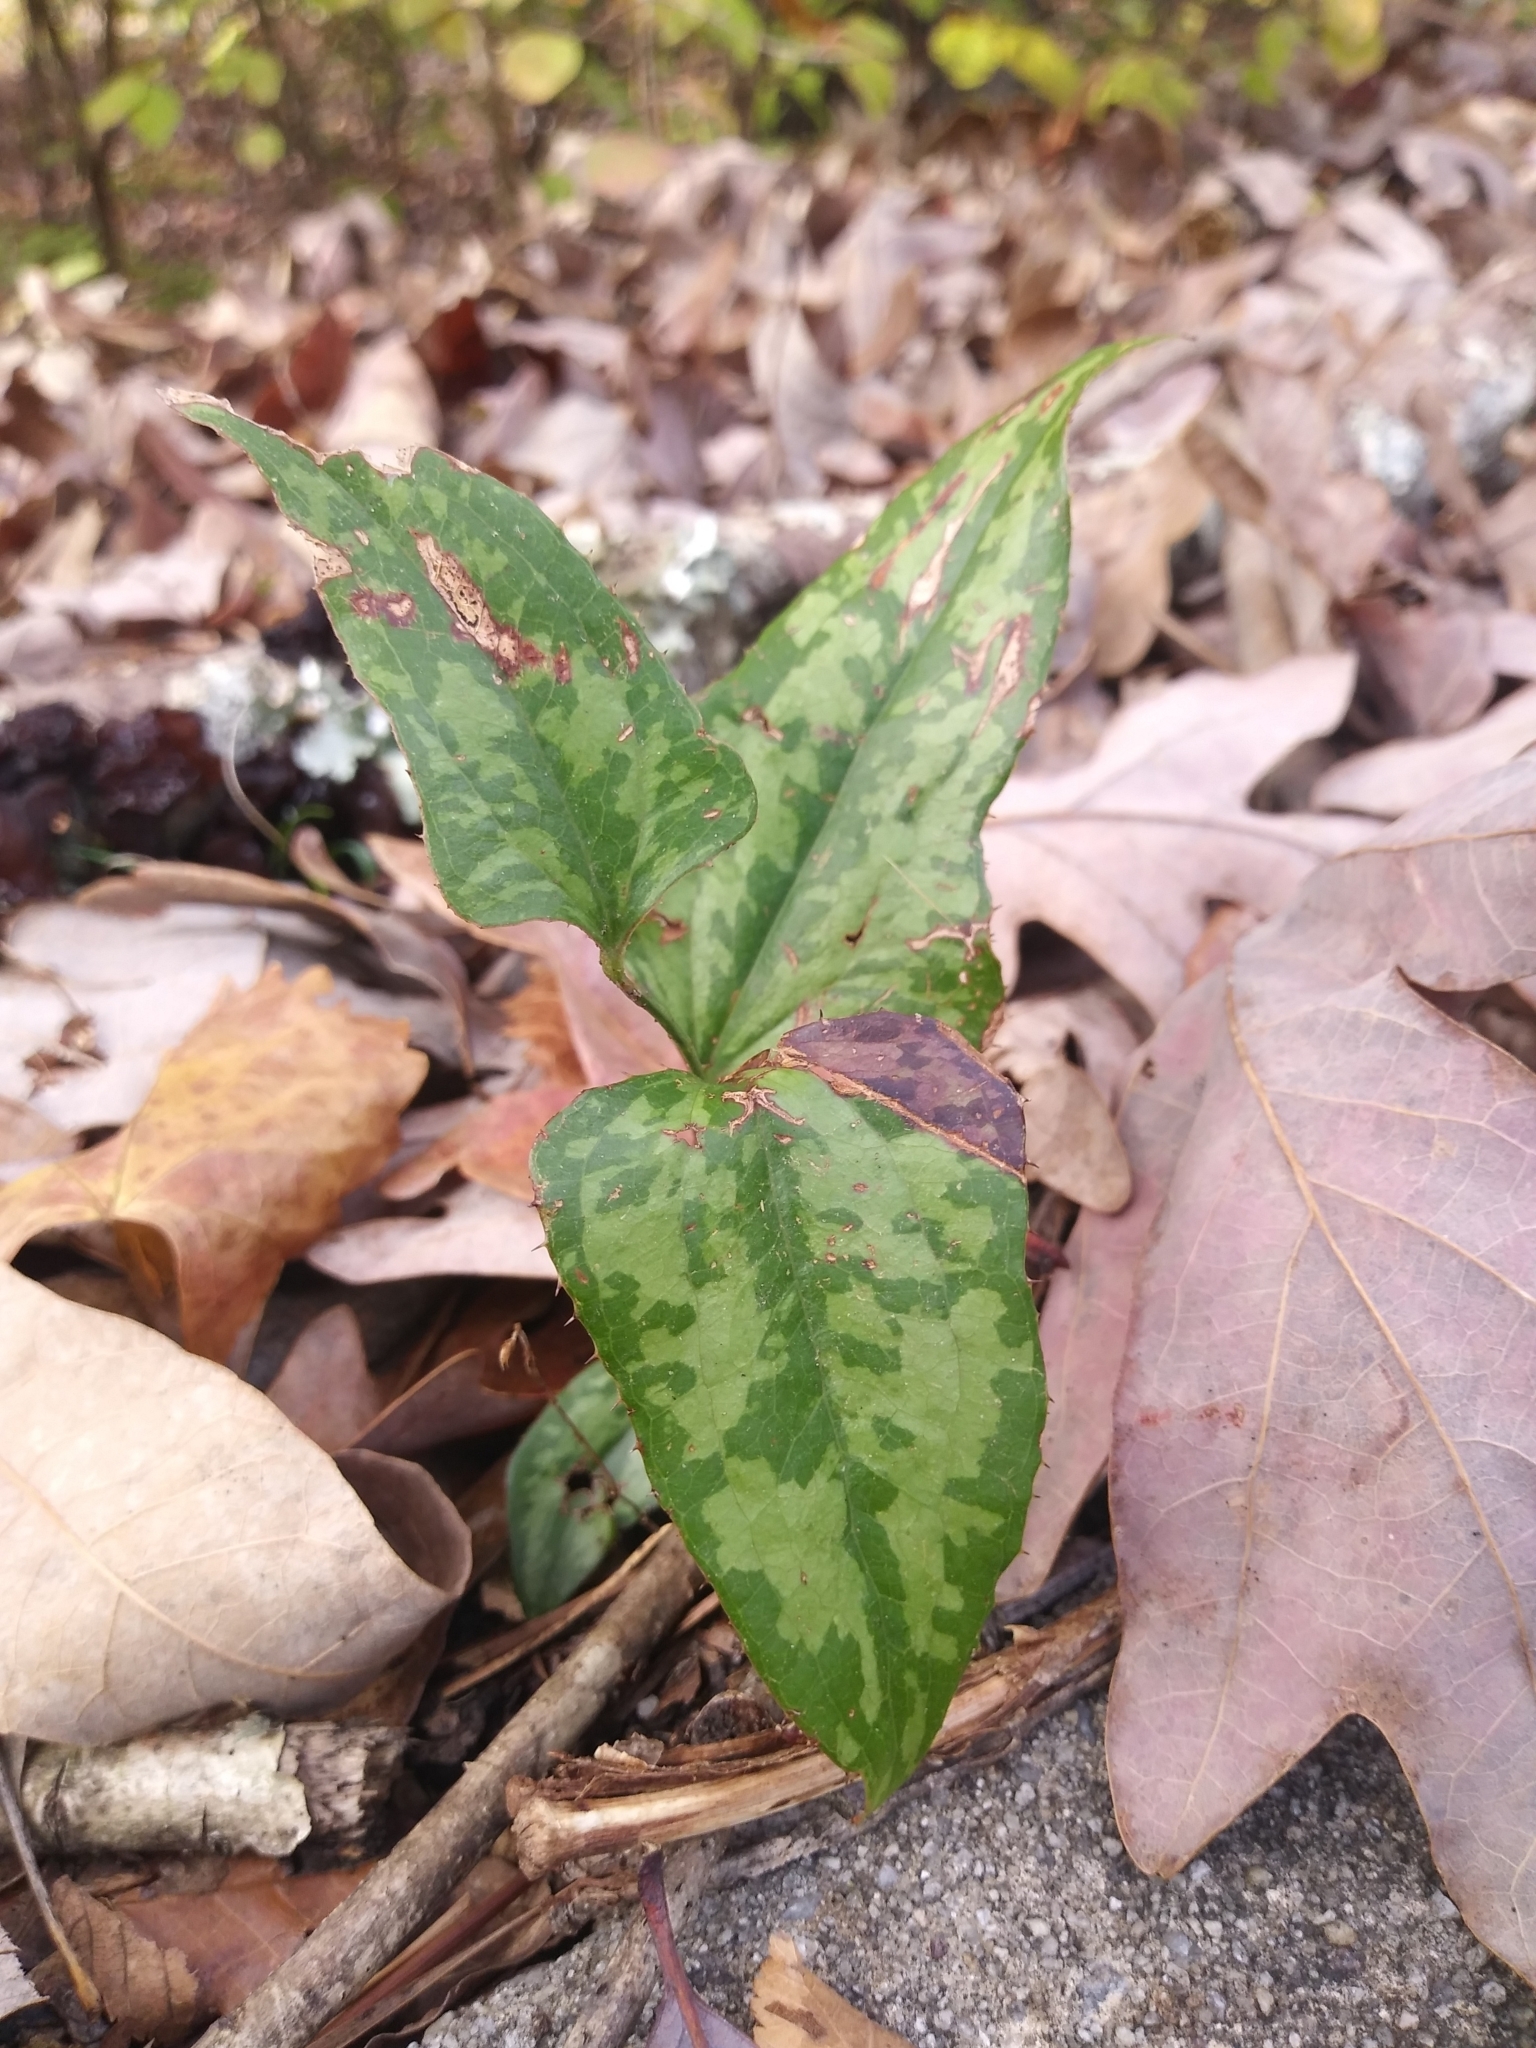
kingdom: Plantae
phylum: Tracheophyta
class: Liliopsida
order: Liliales
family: Smilacaceae
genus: Smilax
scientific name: Smilax bona-nox
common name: Catbrier
